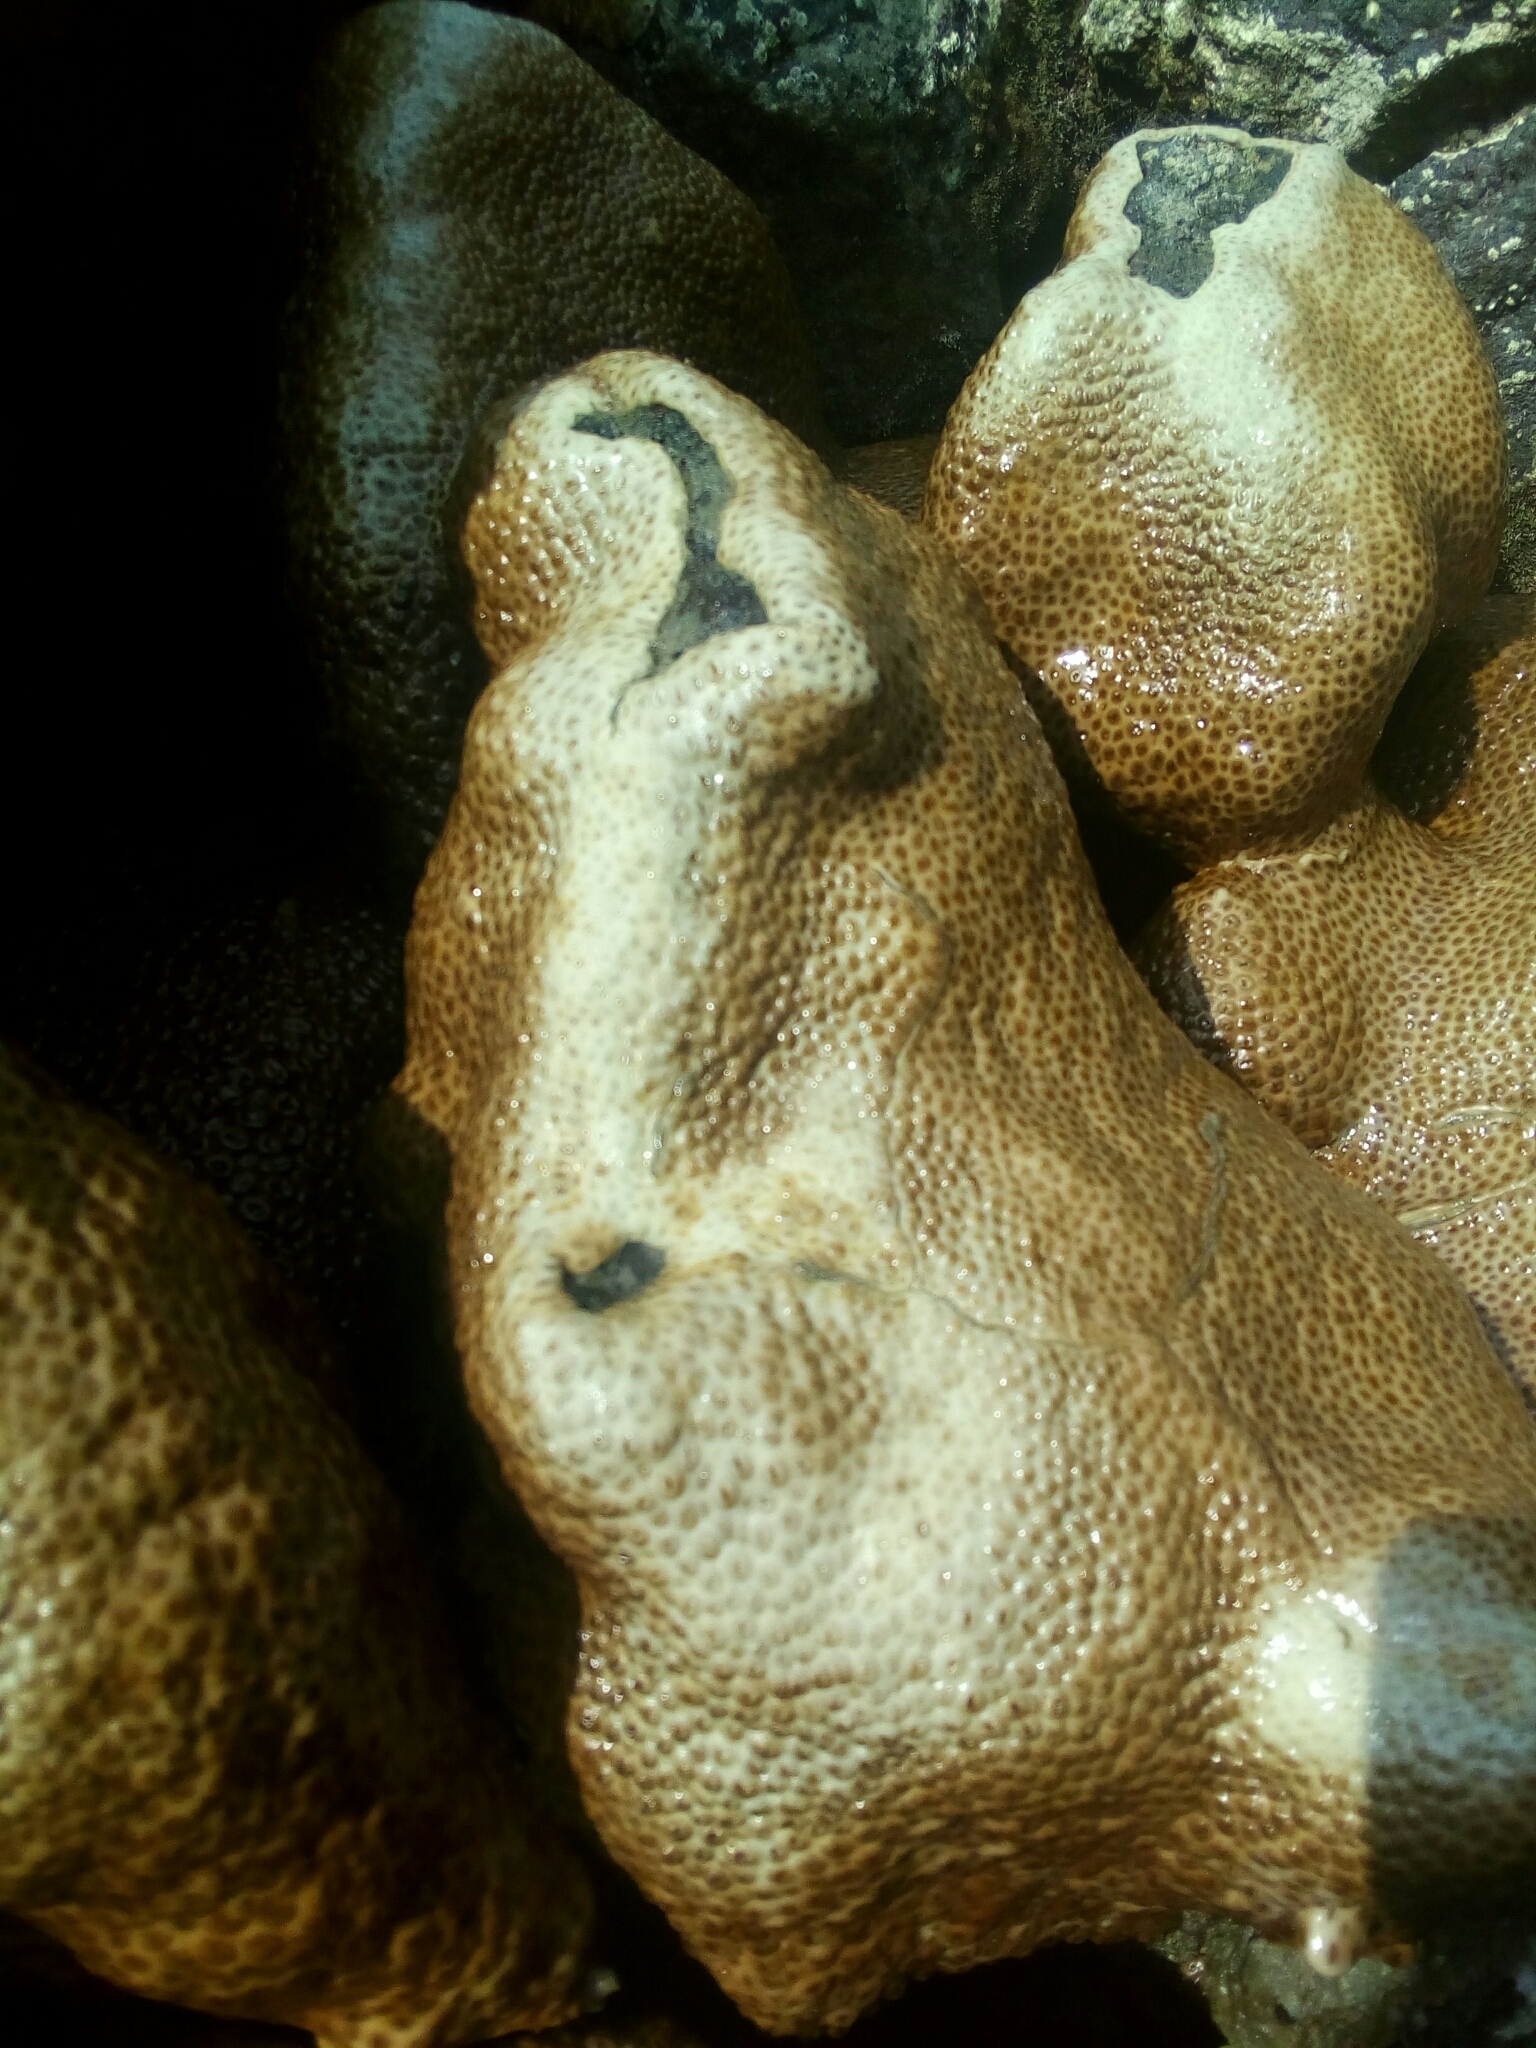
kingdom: Animalia
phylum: Cnidaria
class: Anthozoa
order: Zoantharia
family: Sphenopidae
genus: Palythoa
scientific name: Palythoa caribaeorum
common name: Encrusting colonial anemone
